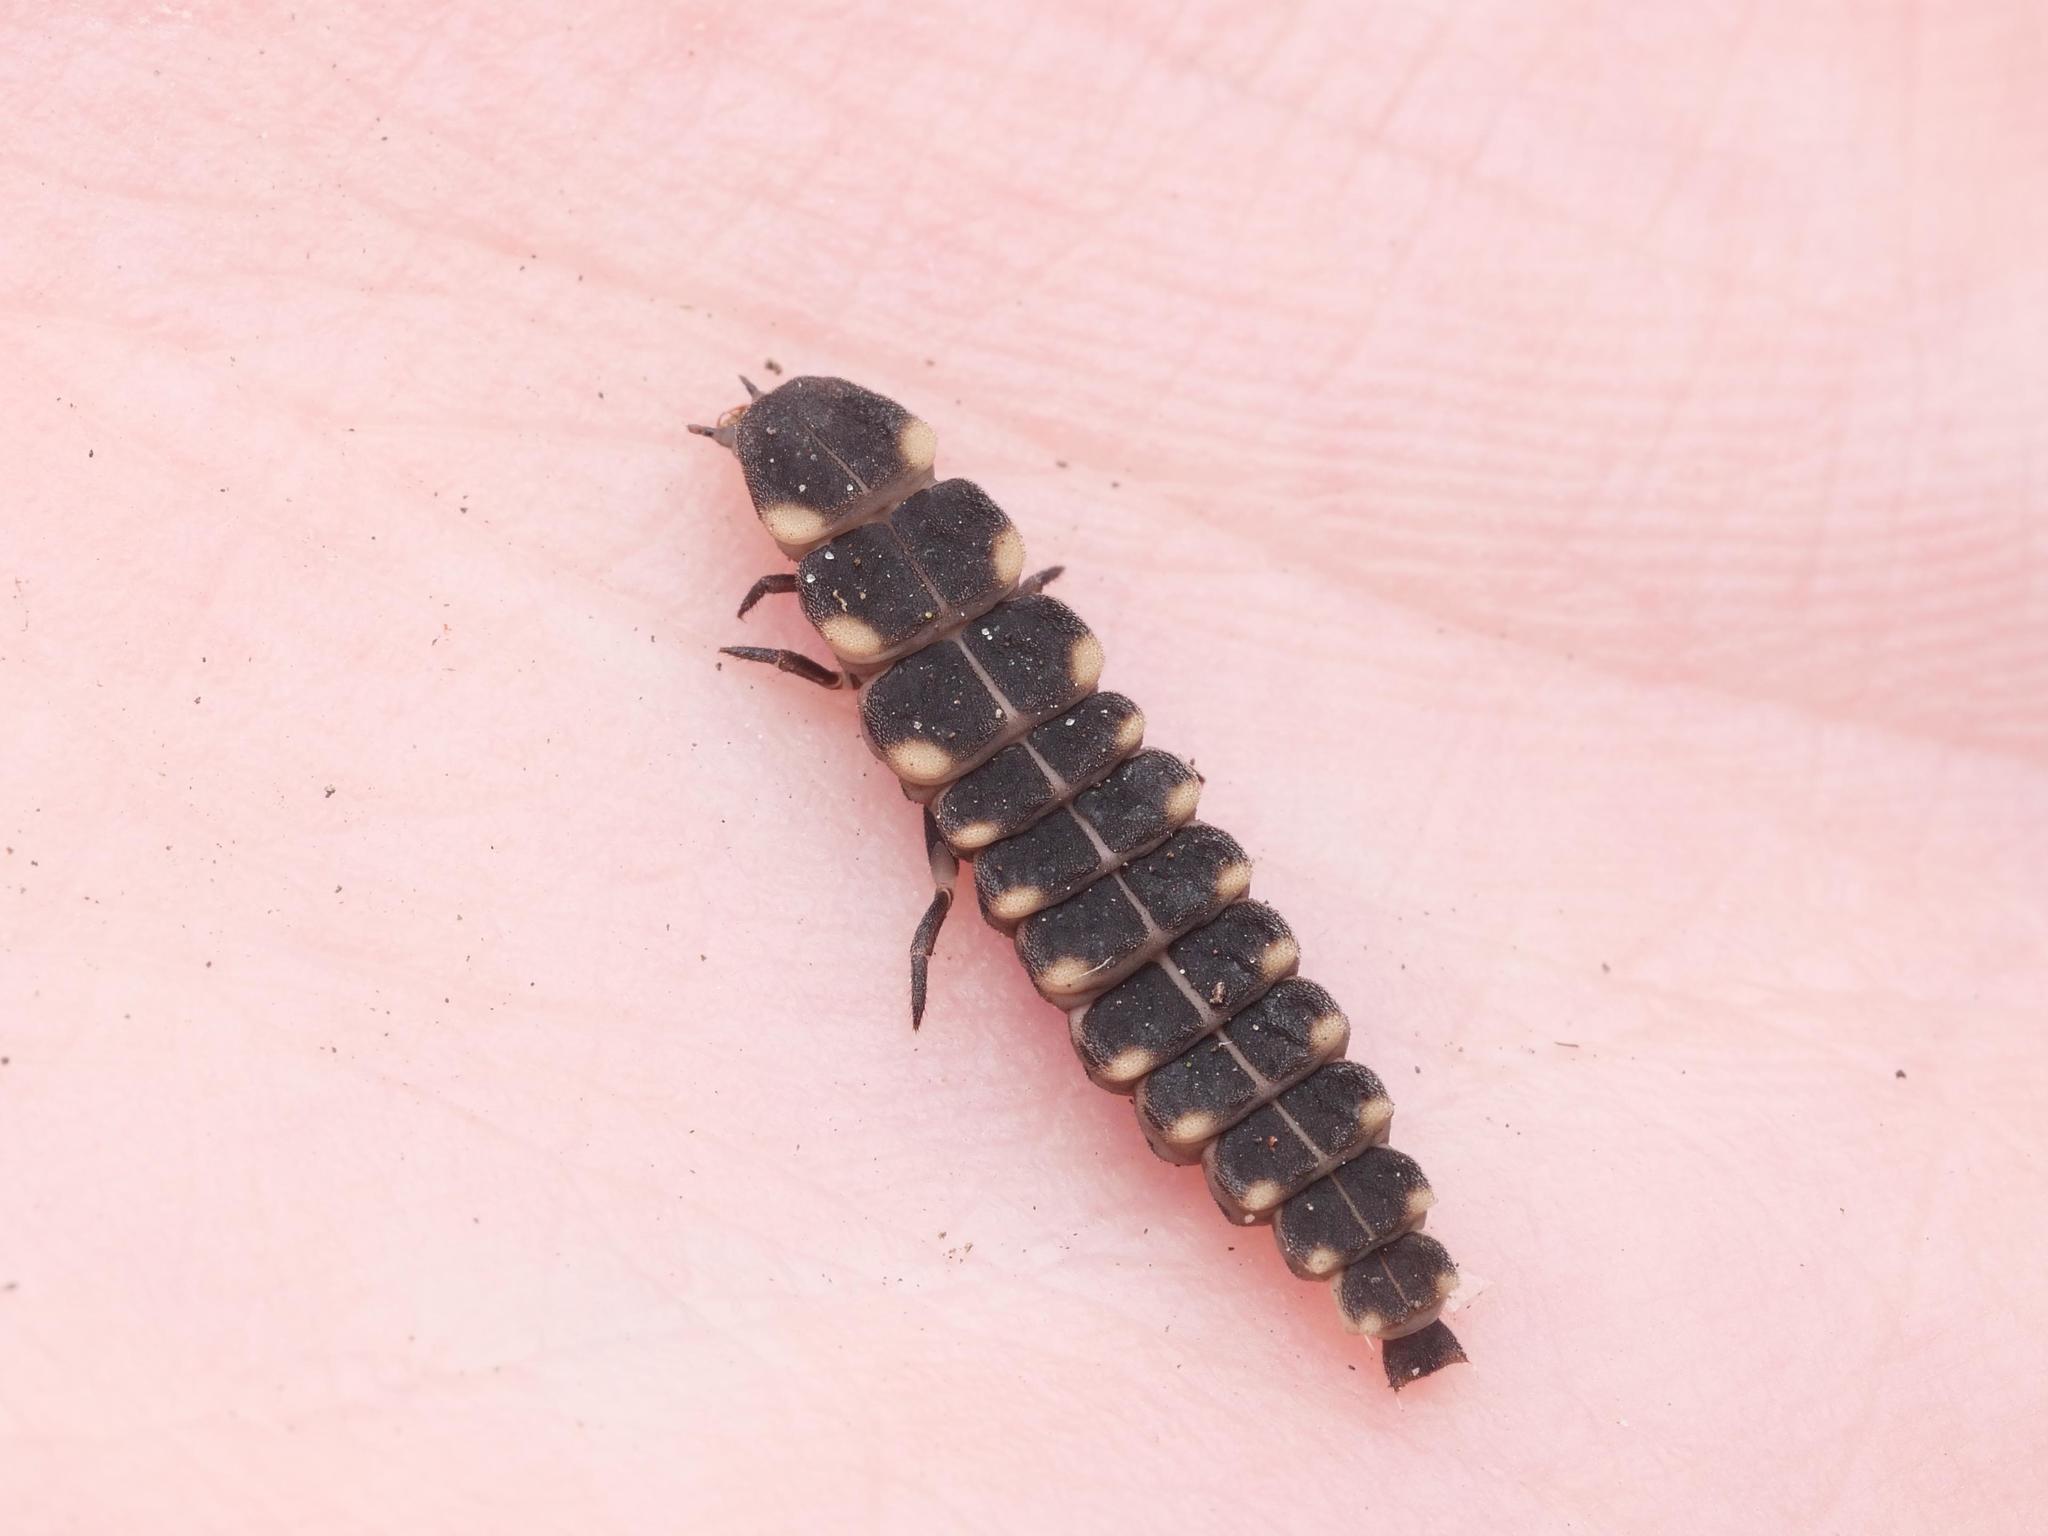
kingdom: Animalia
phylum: Arthropoda
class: Insecta
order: Coleoptera
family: Lampyridae
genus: Lampyris
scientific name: Lampyris noctiluca
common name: Glow-worm
